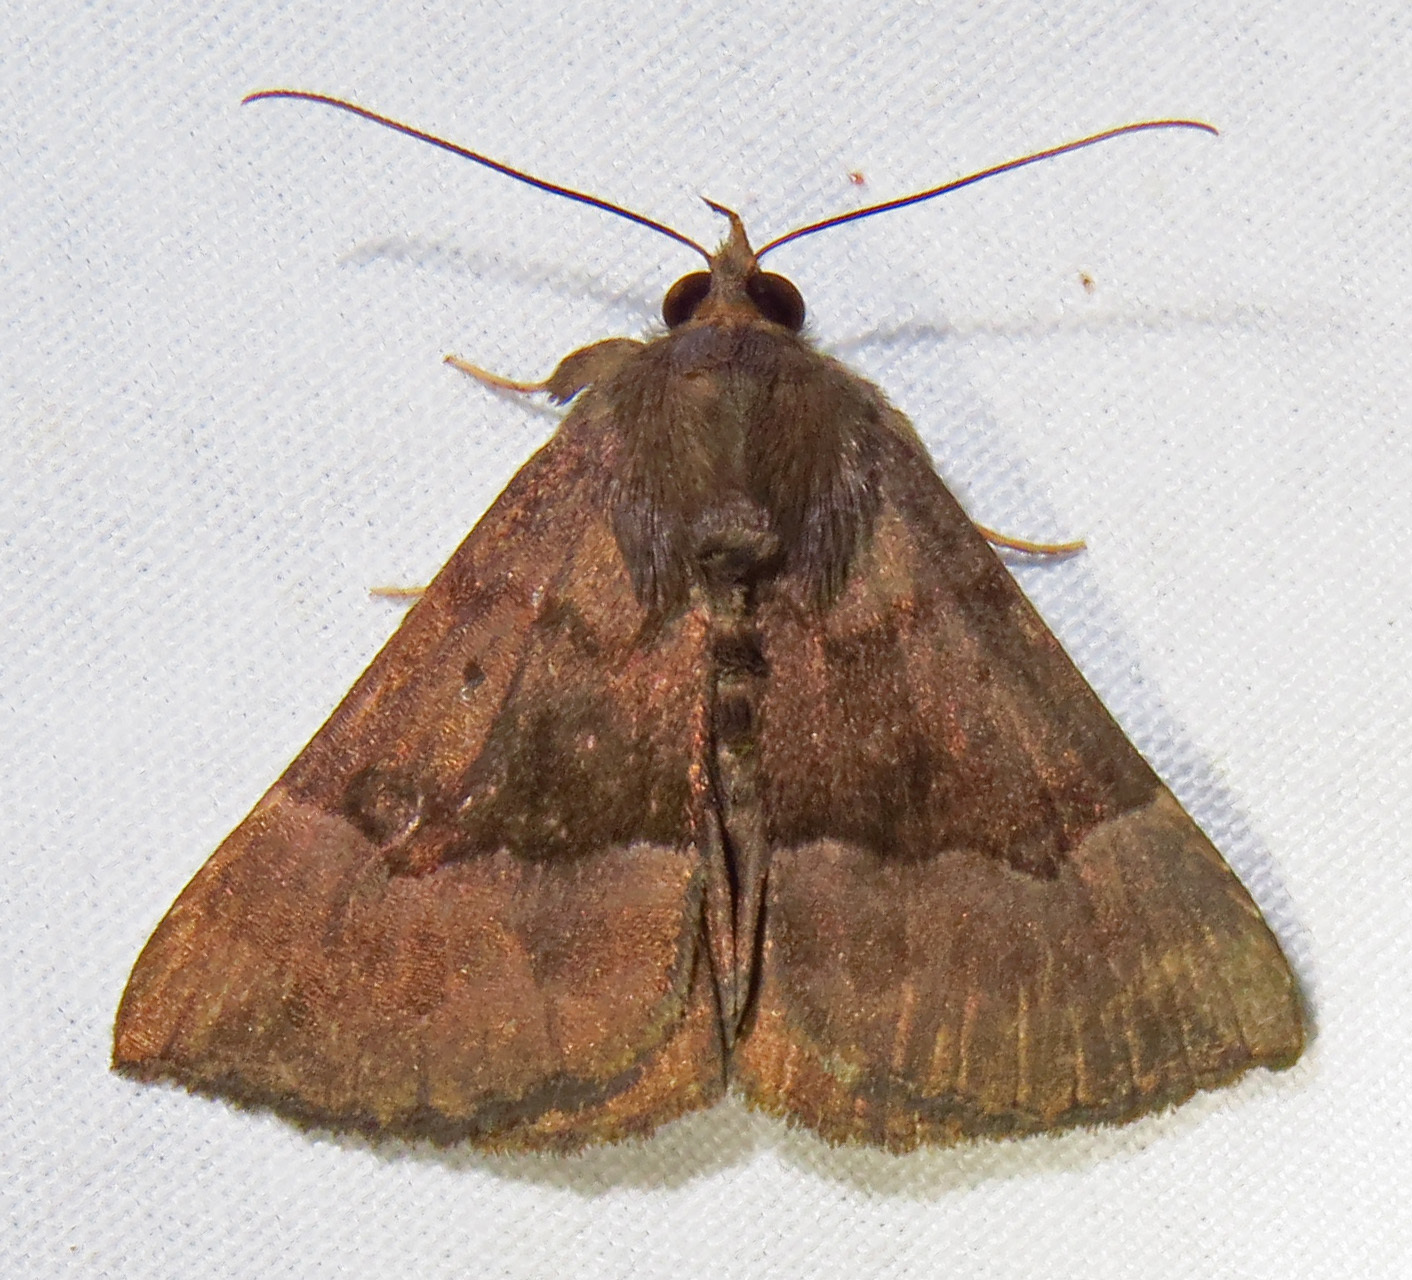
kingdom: Animalia
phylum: Arthropoda
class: Insecta
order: Lepidoptera
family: Erebidae
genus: Hypena
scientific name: Hypena madefactalis
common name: Gray-edged snout
